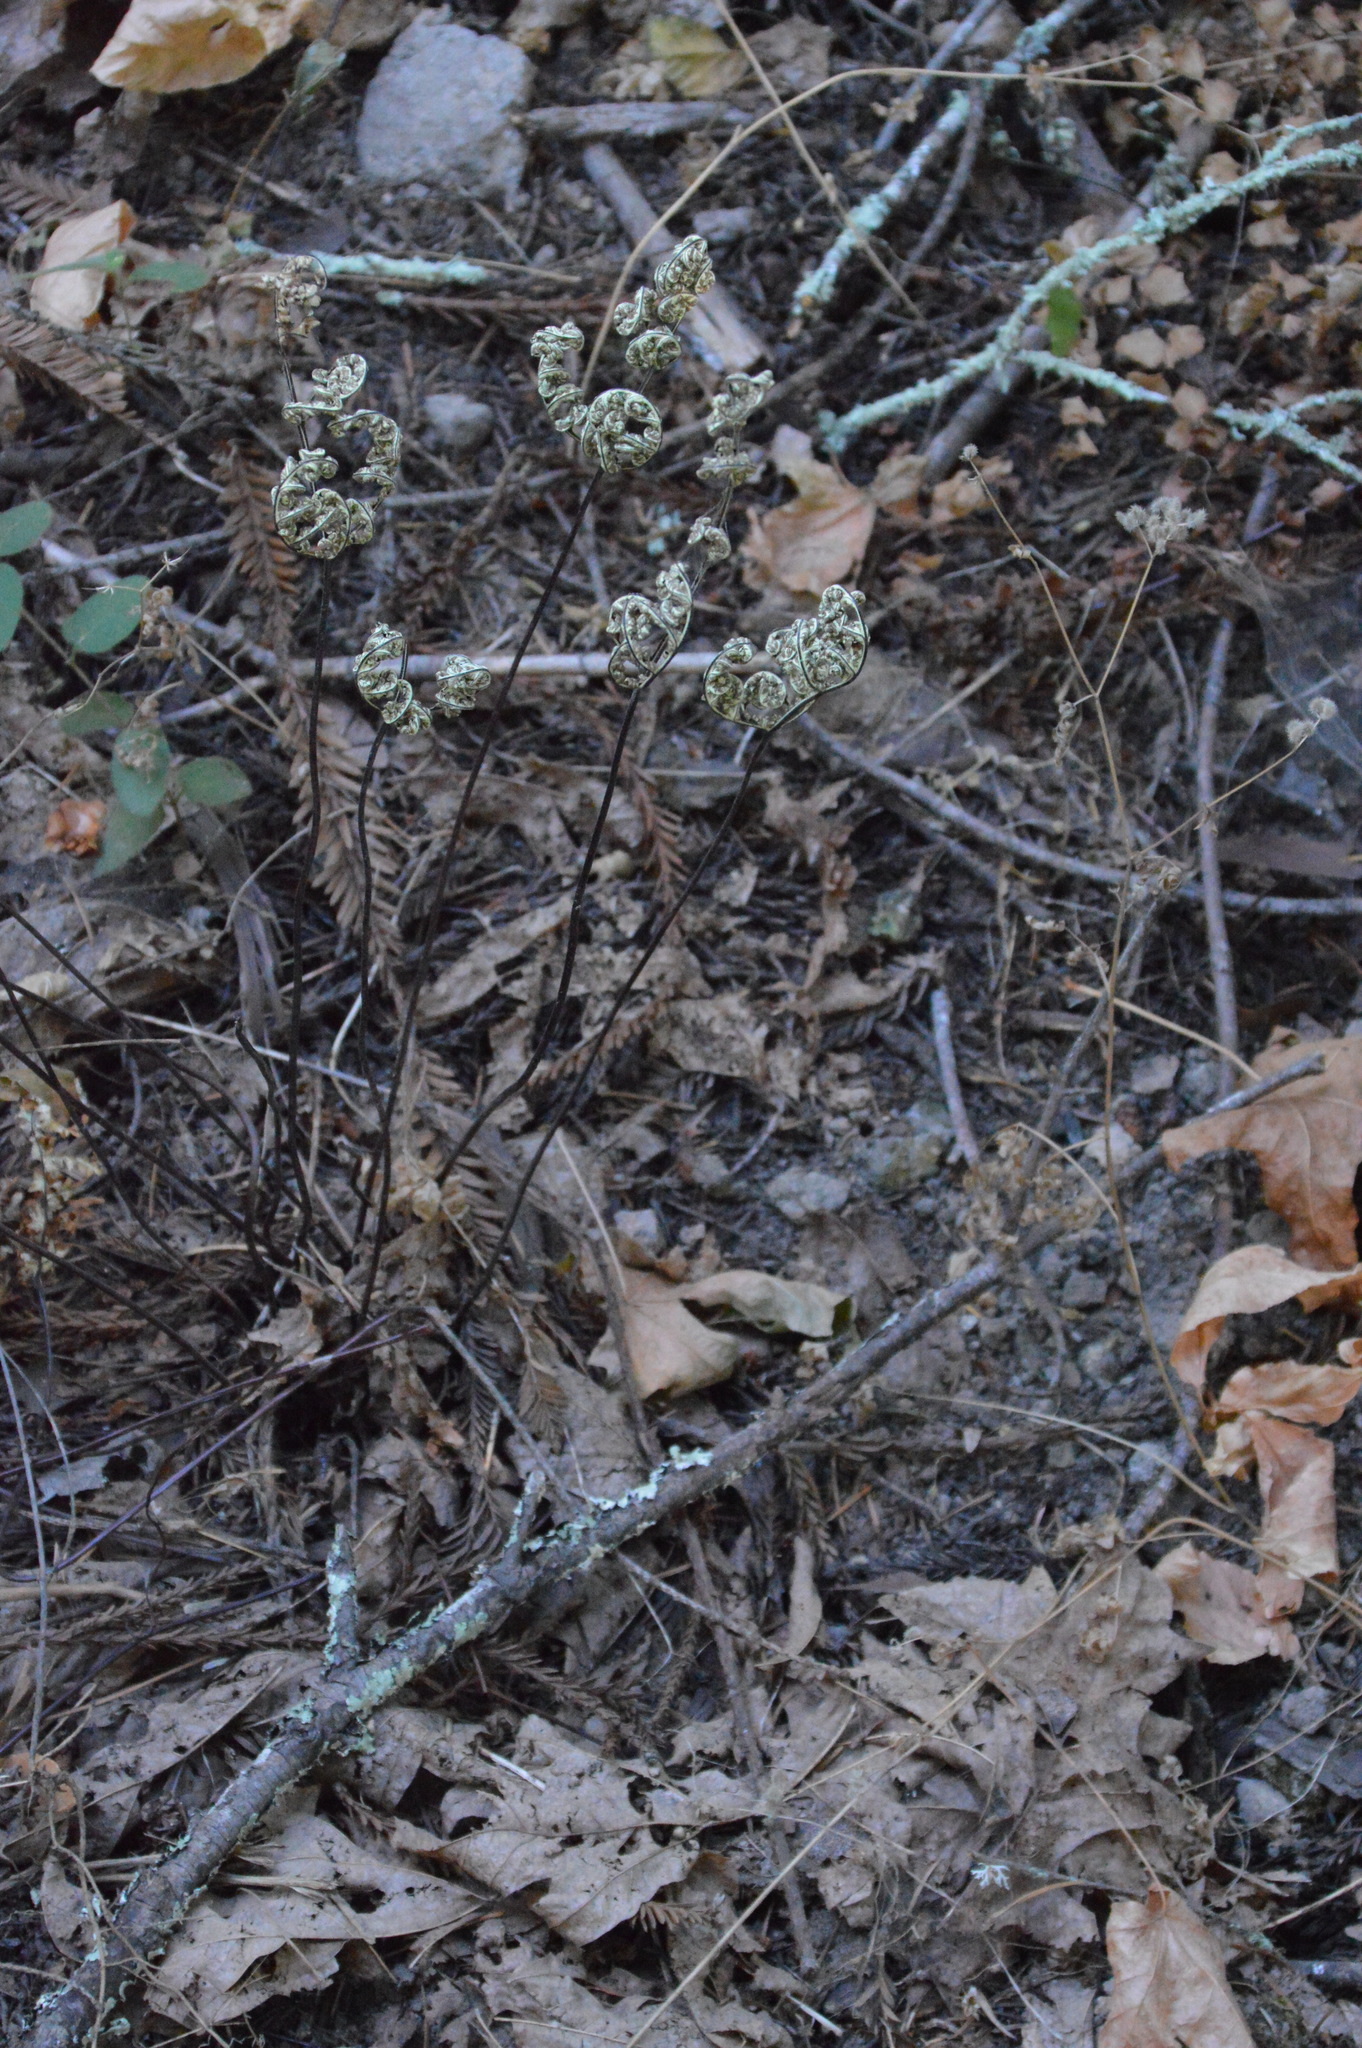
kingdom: Plantae
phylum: Tracheophyta
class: Polypodiopsida
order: Polypodiales
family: Pteridaceae
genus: Pentagramma
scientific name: Pentagramma triangularis
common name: Gold fern
